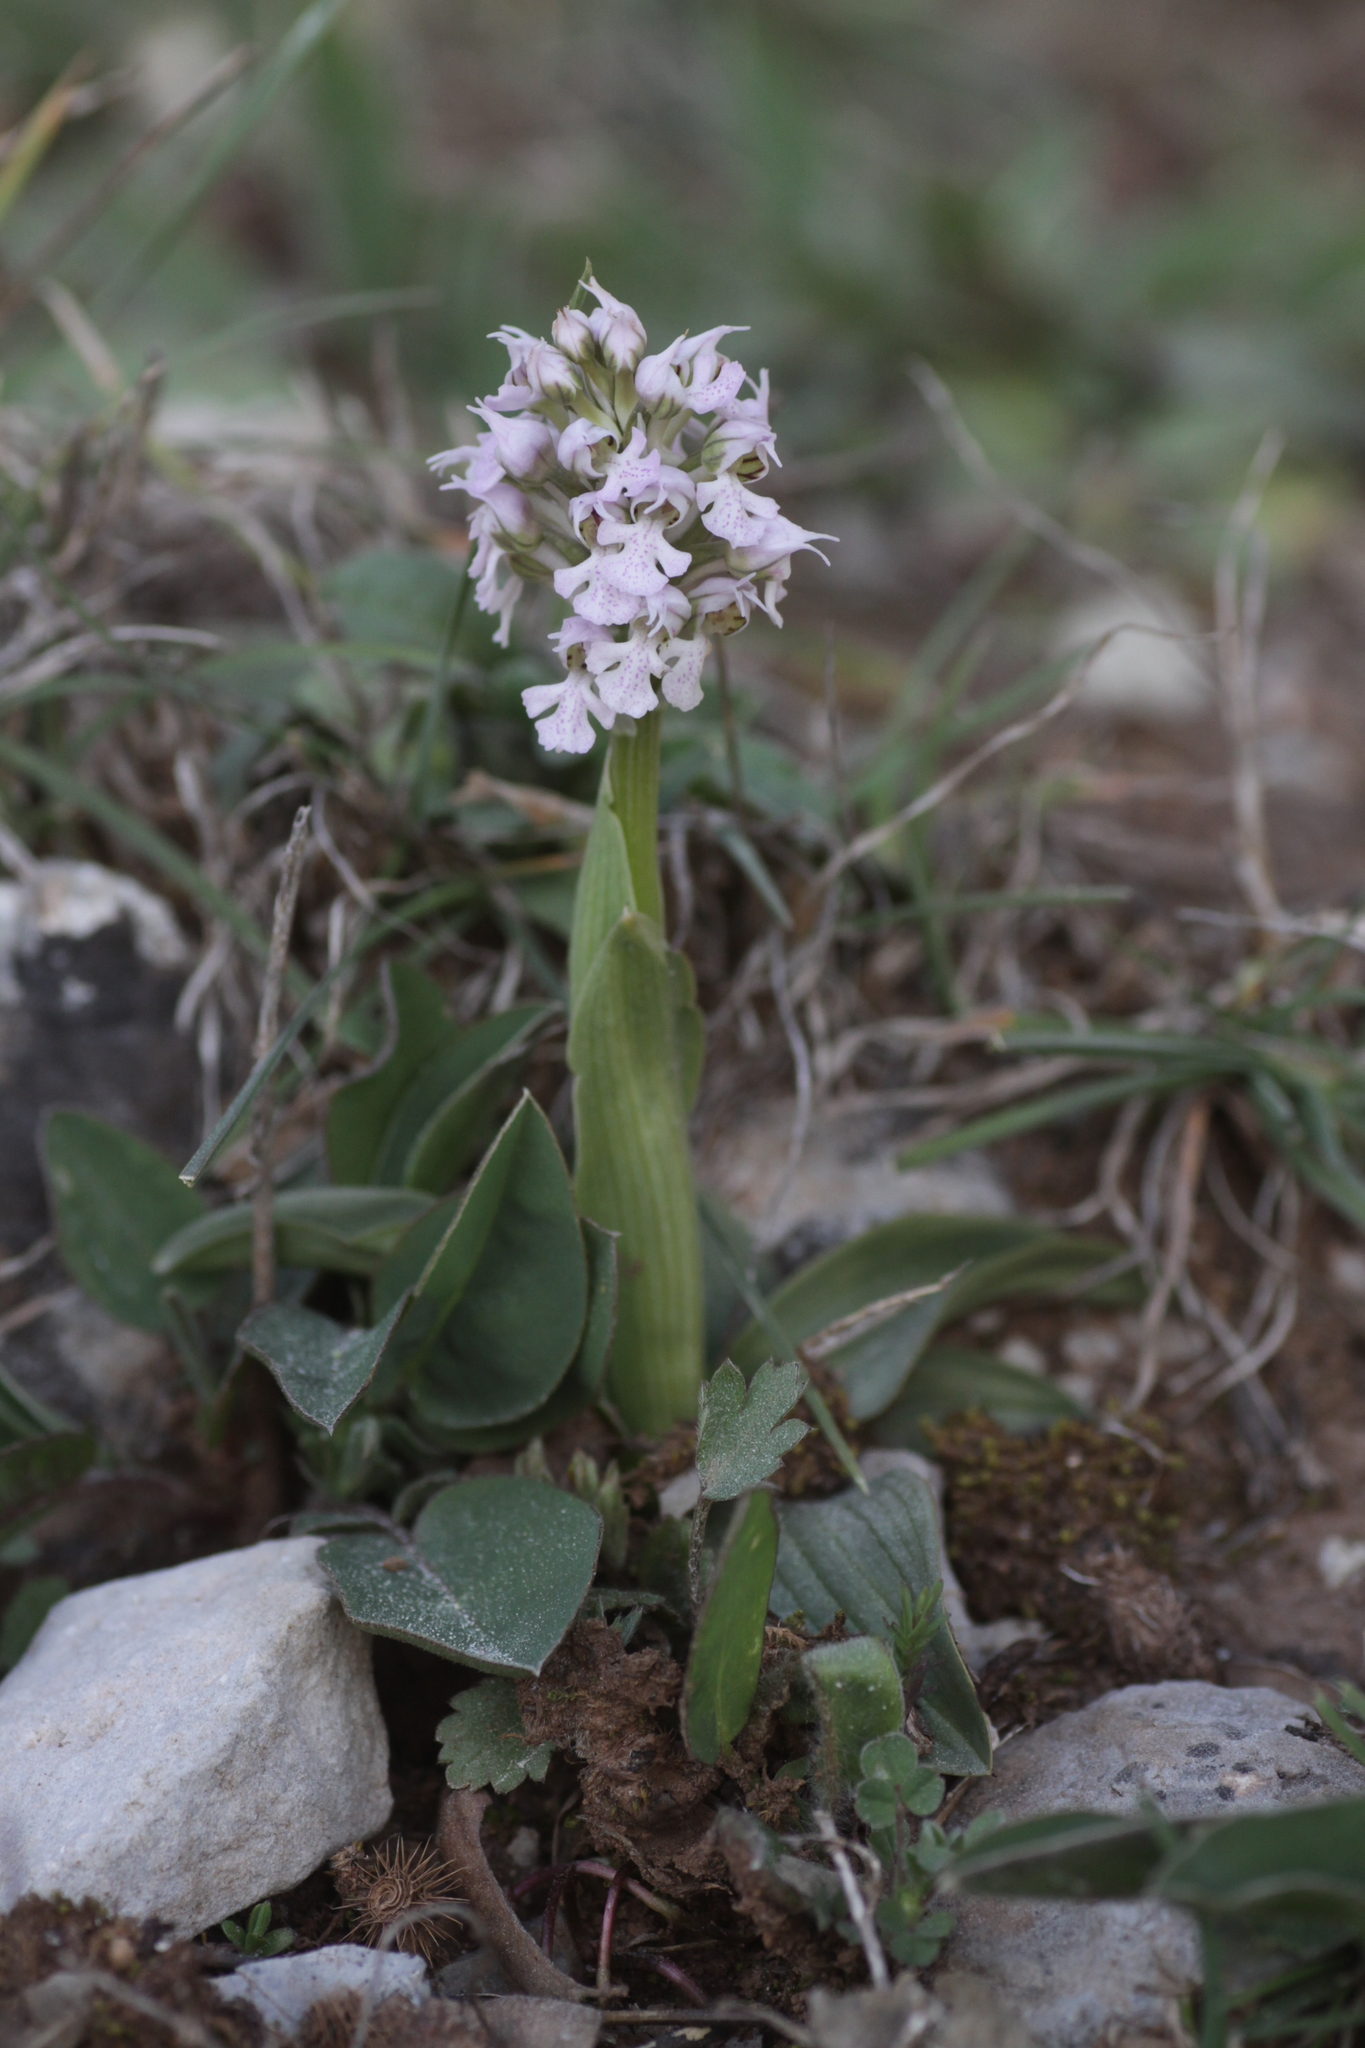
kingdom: Plantae
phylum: Tracheophyta
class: Liliopsida
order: Asparagales
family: Orchidaceae
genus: Neotinea
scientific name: Neotinea conica
